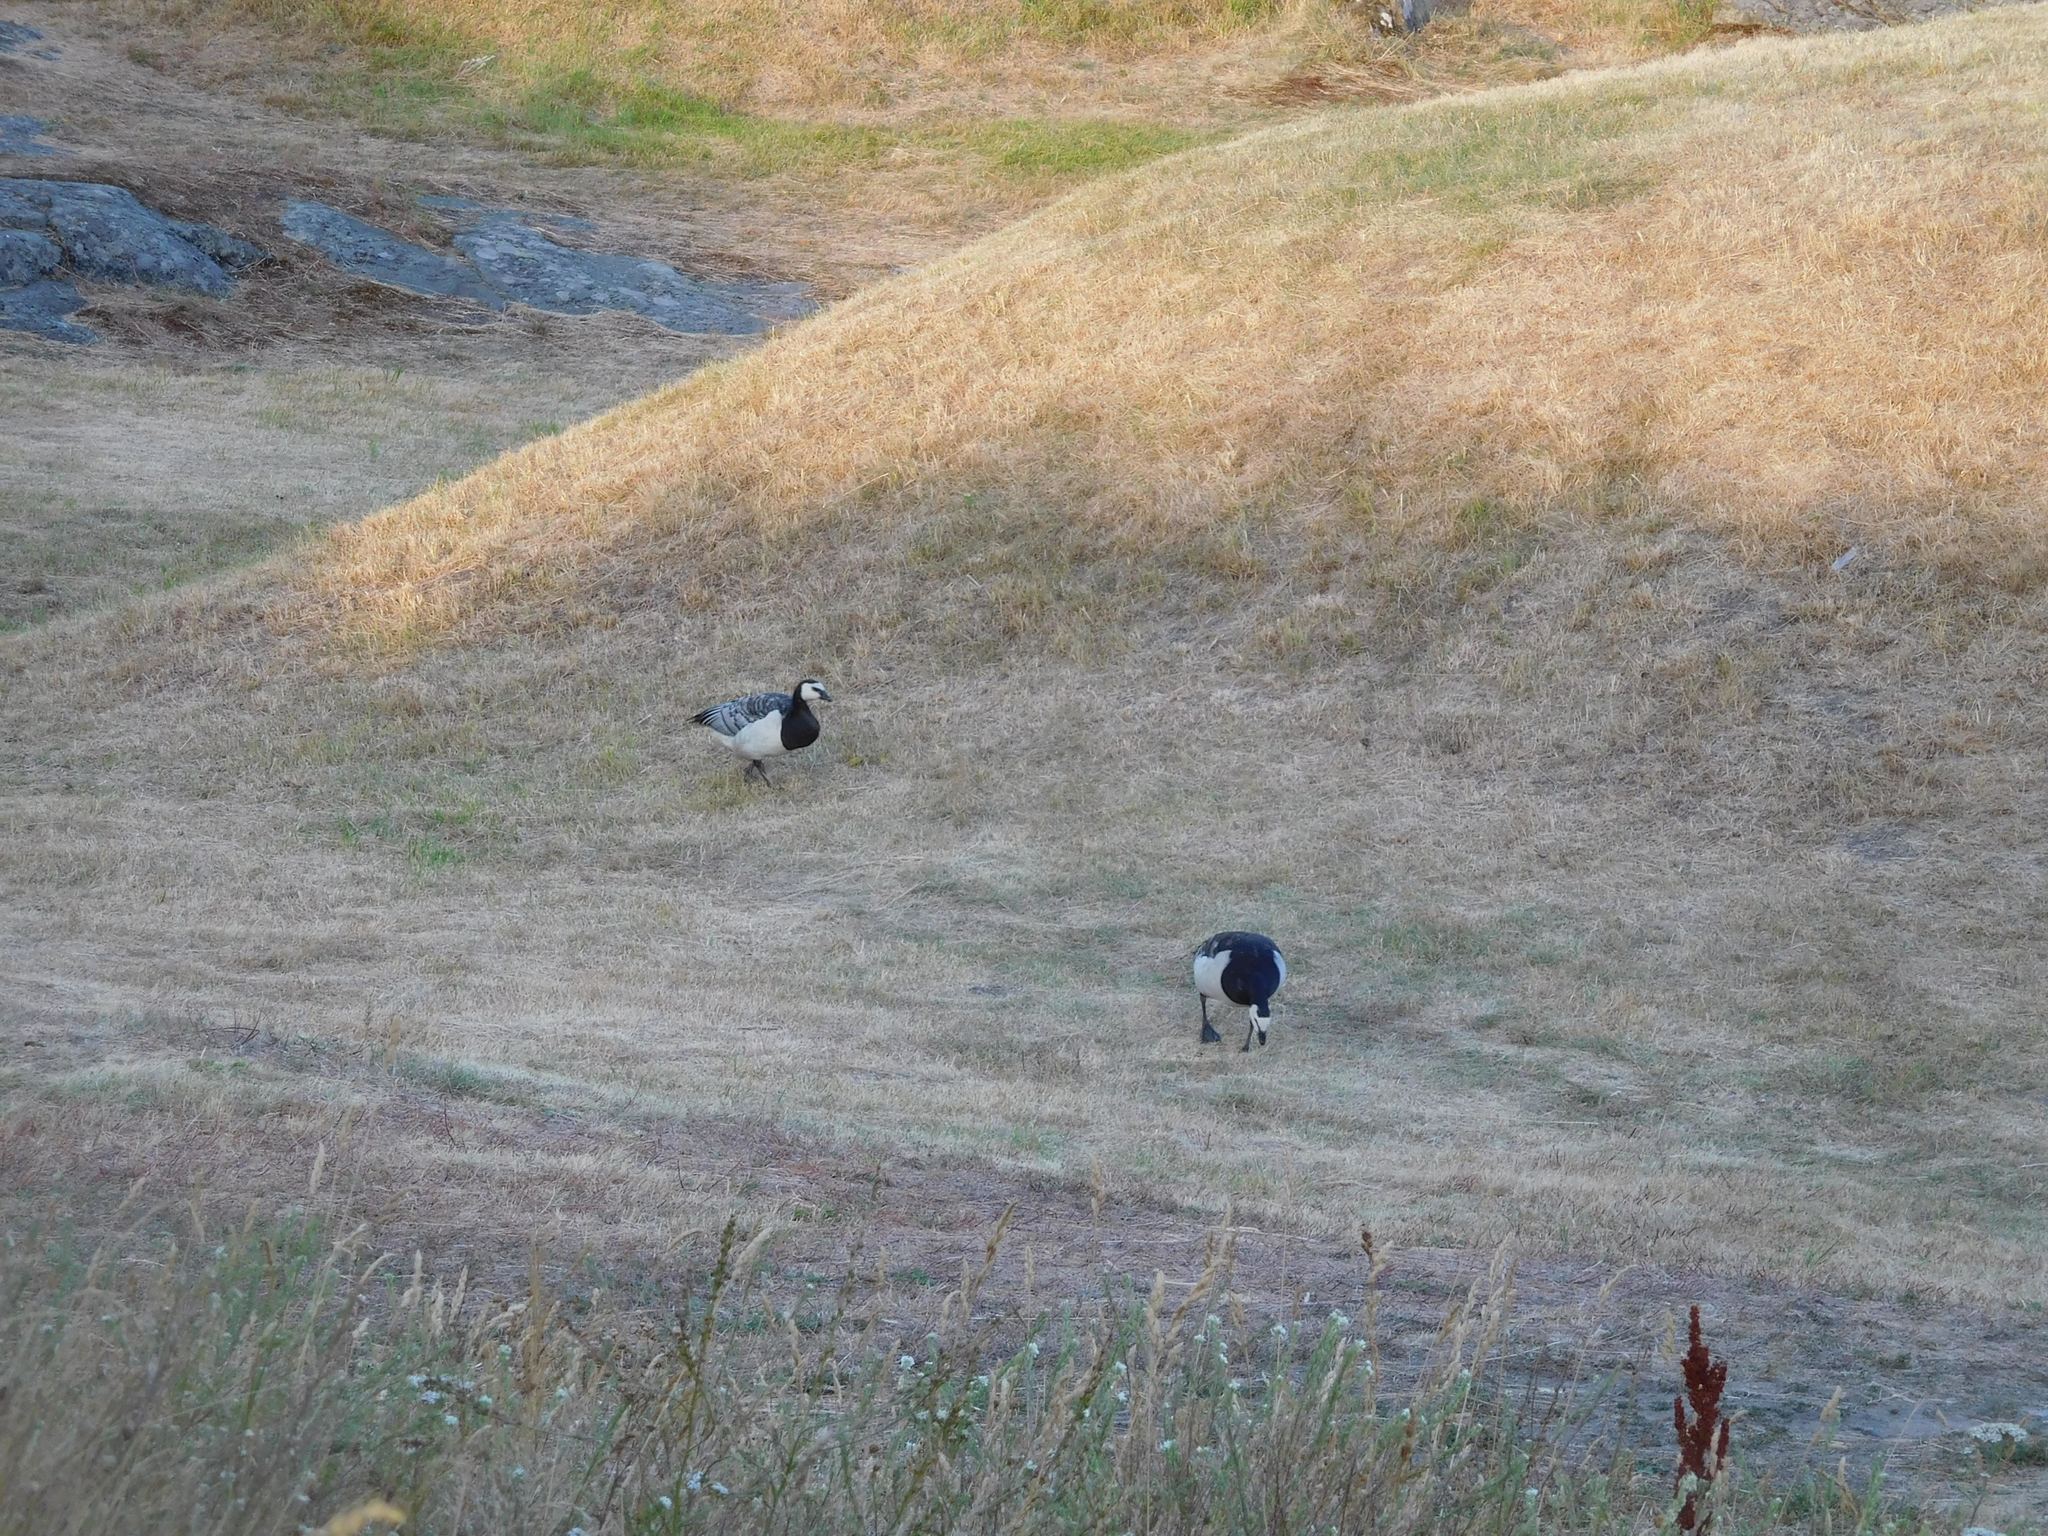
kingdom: Animalia
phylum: Chordata
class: Aves
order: Anseriformes
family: Anatidae
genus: Branta
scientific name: Branta leucopsis
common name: Barnacle goose
